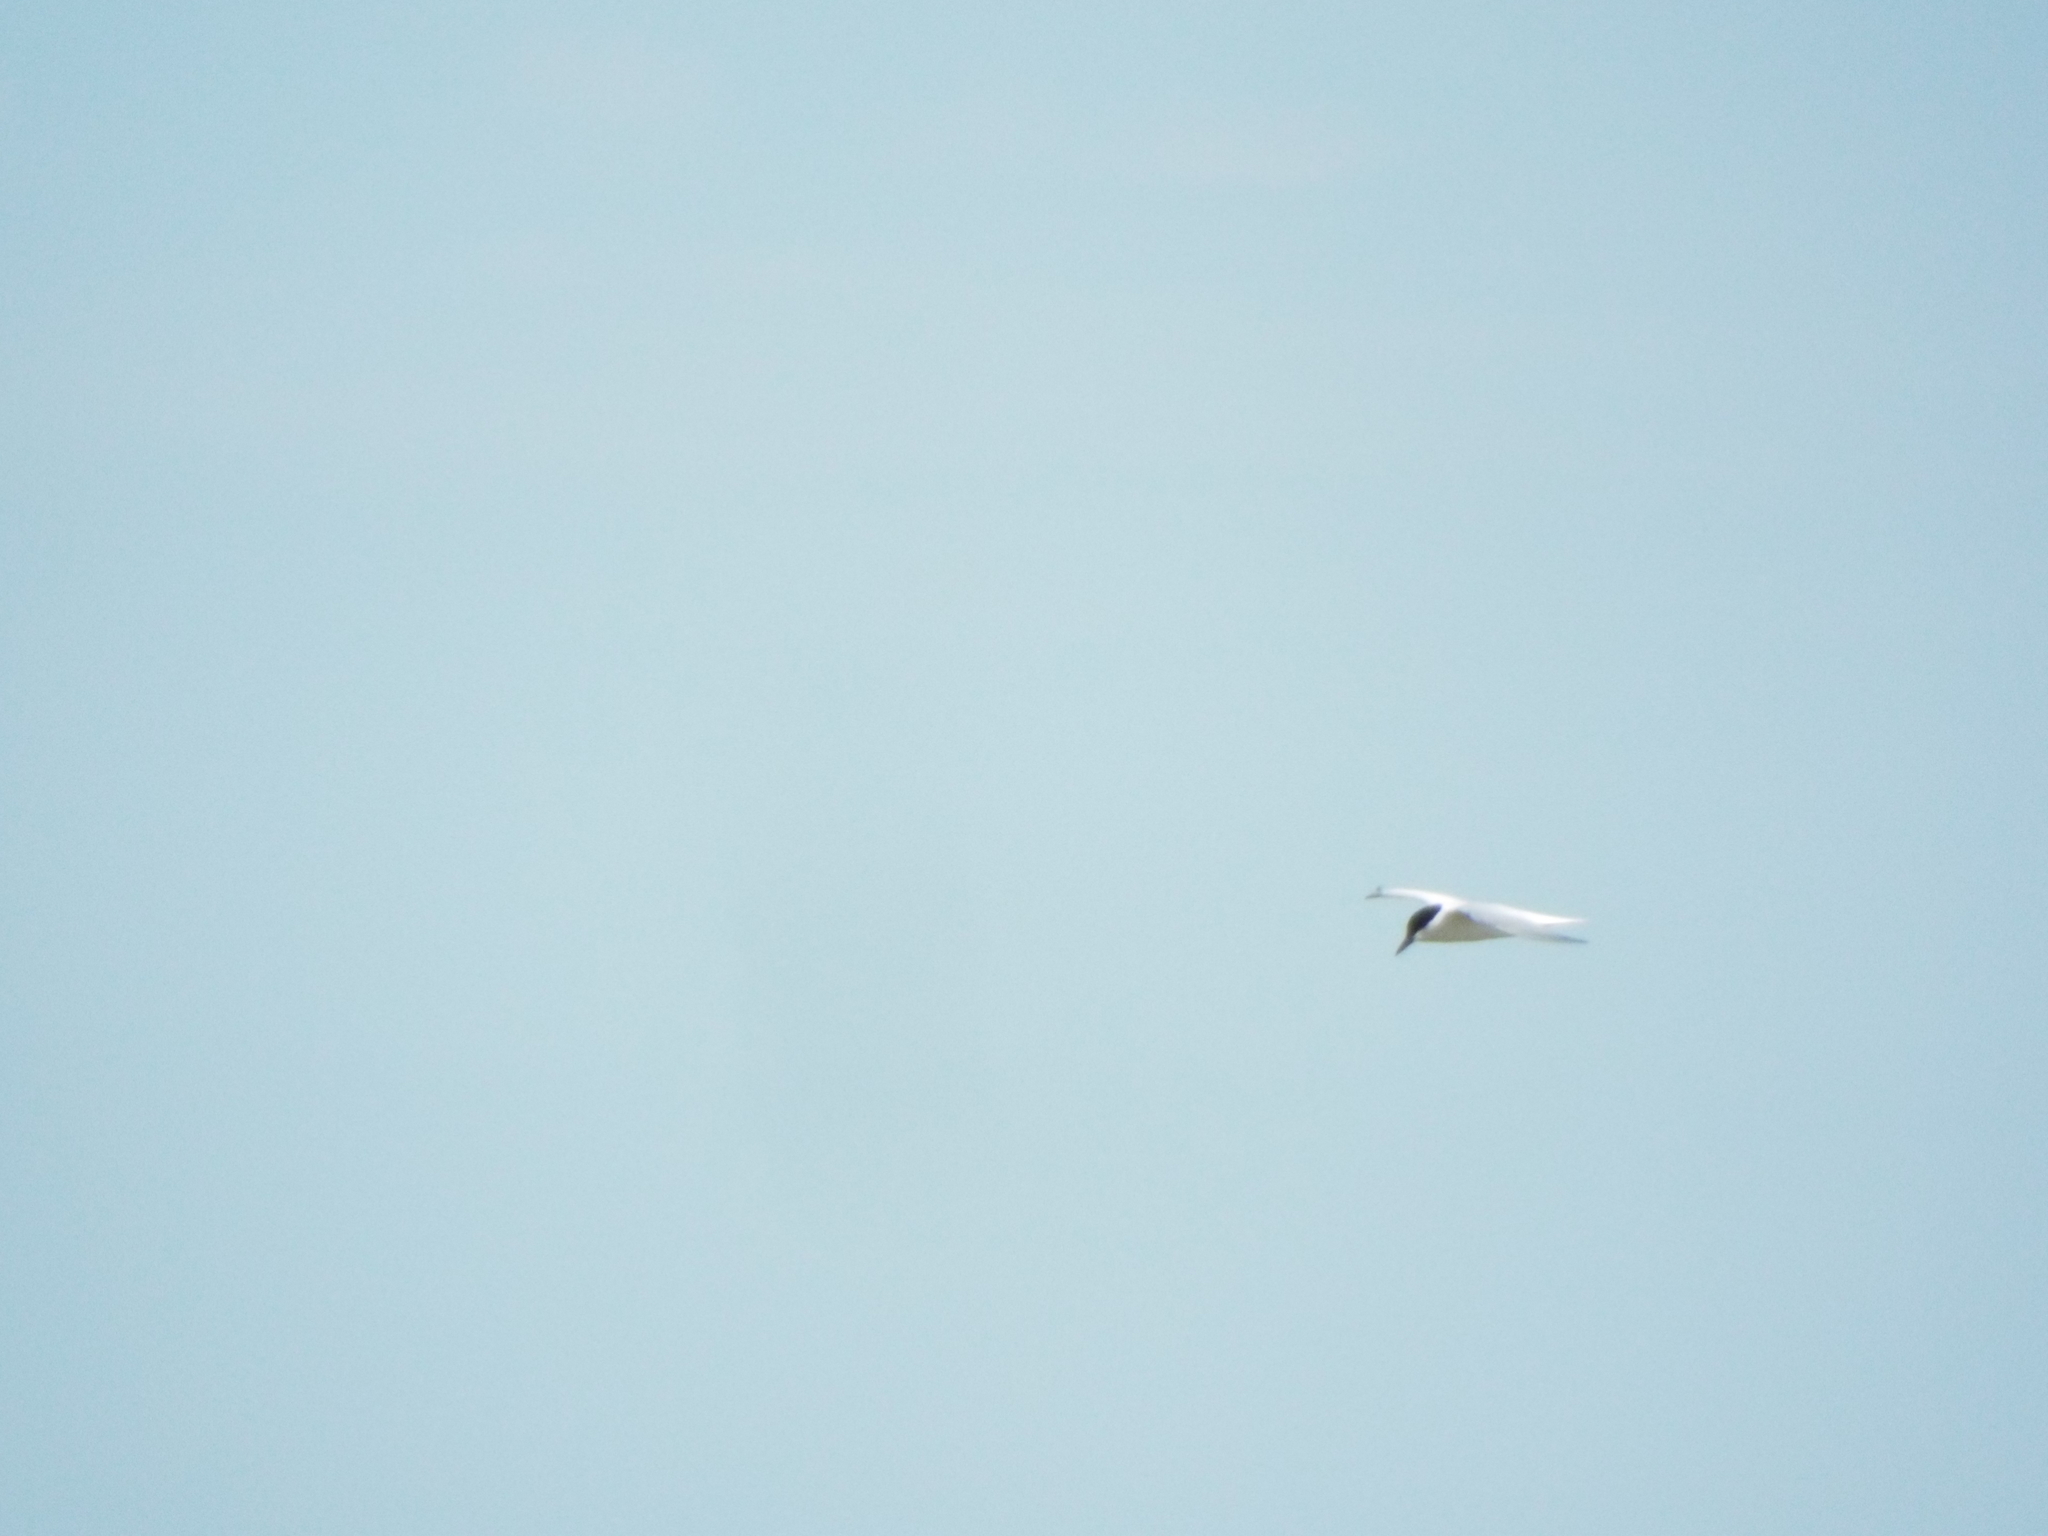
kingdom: Animalia
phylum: Chordata
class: Aves
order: Charadriiformes
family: Laridae
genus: Gelochelidon
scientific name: Gelochelidon nilotica
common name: Gull-billed tern
